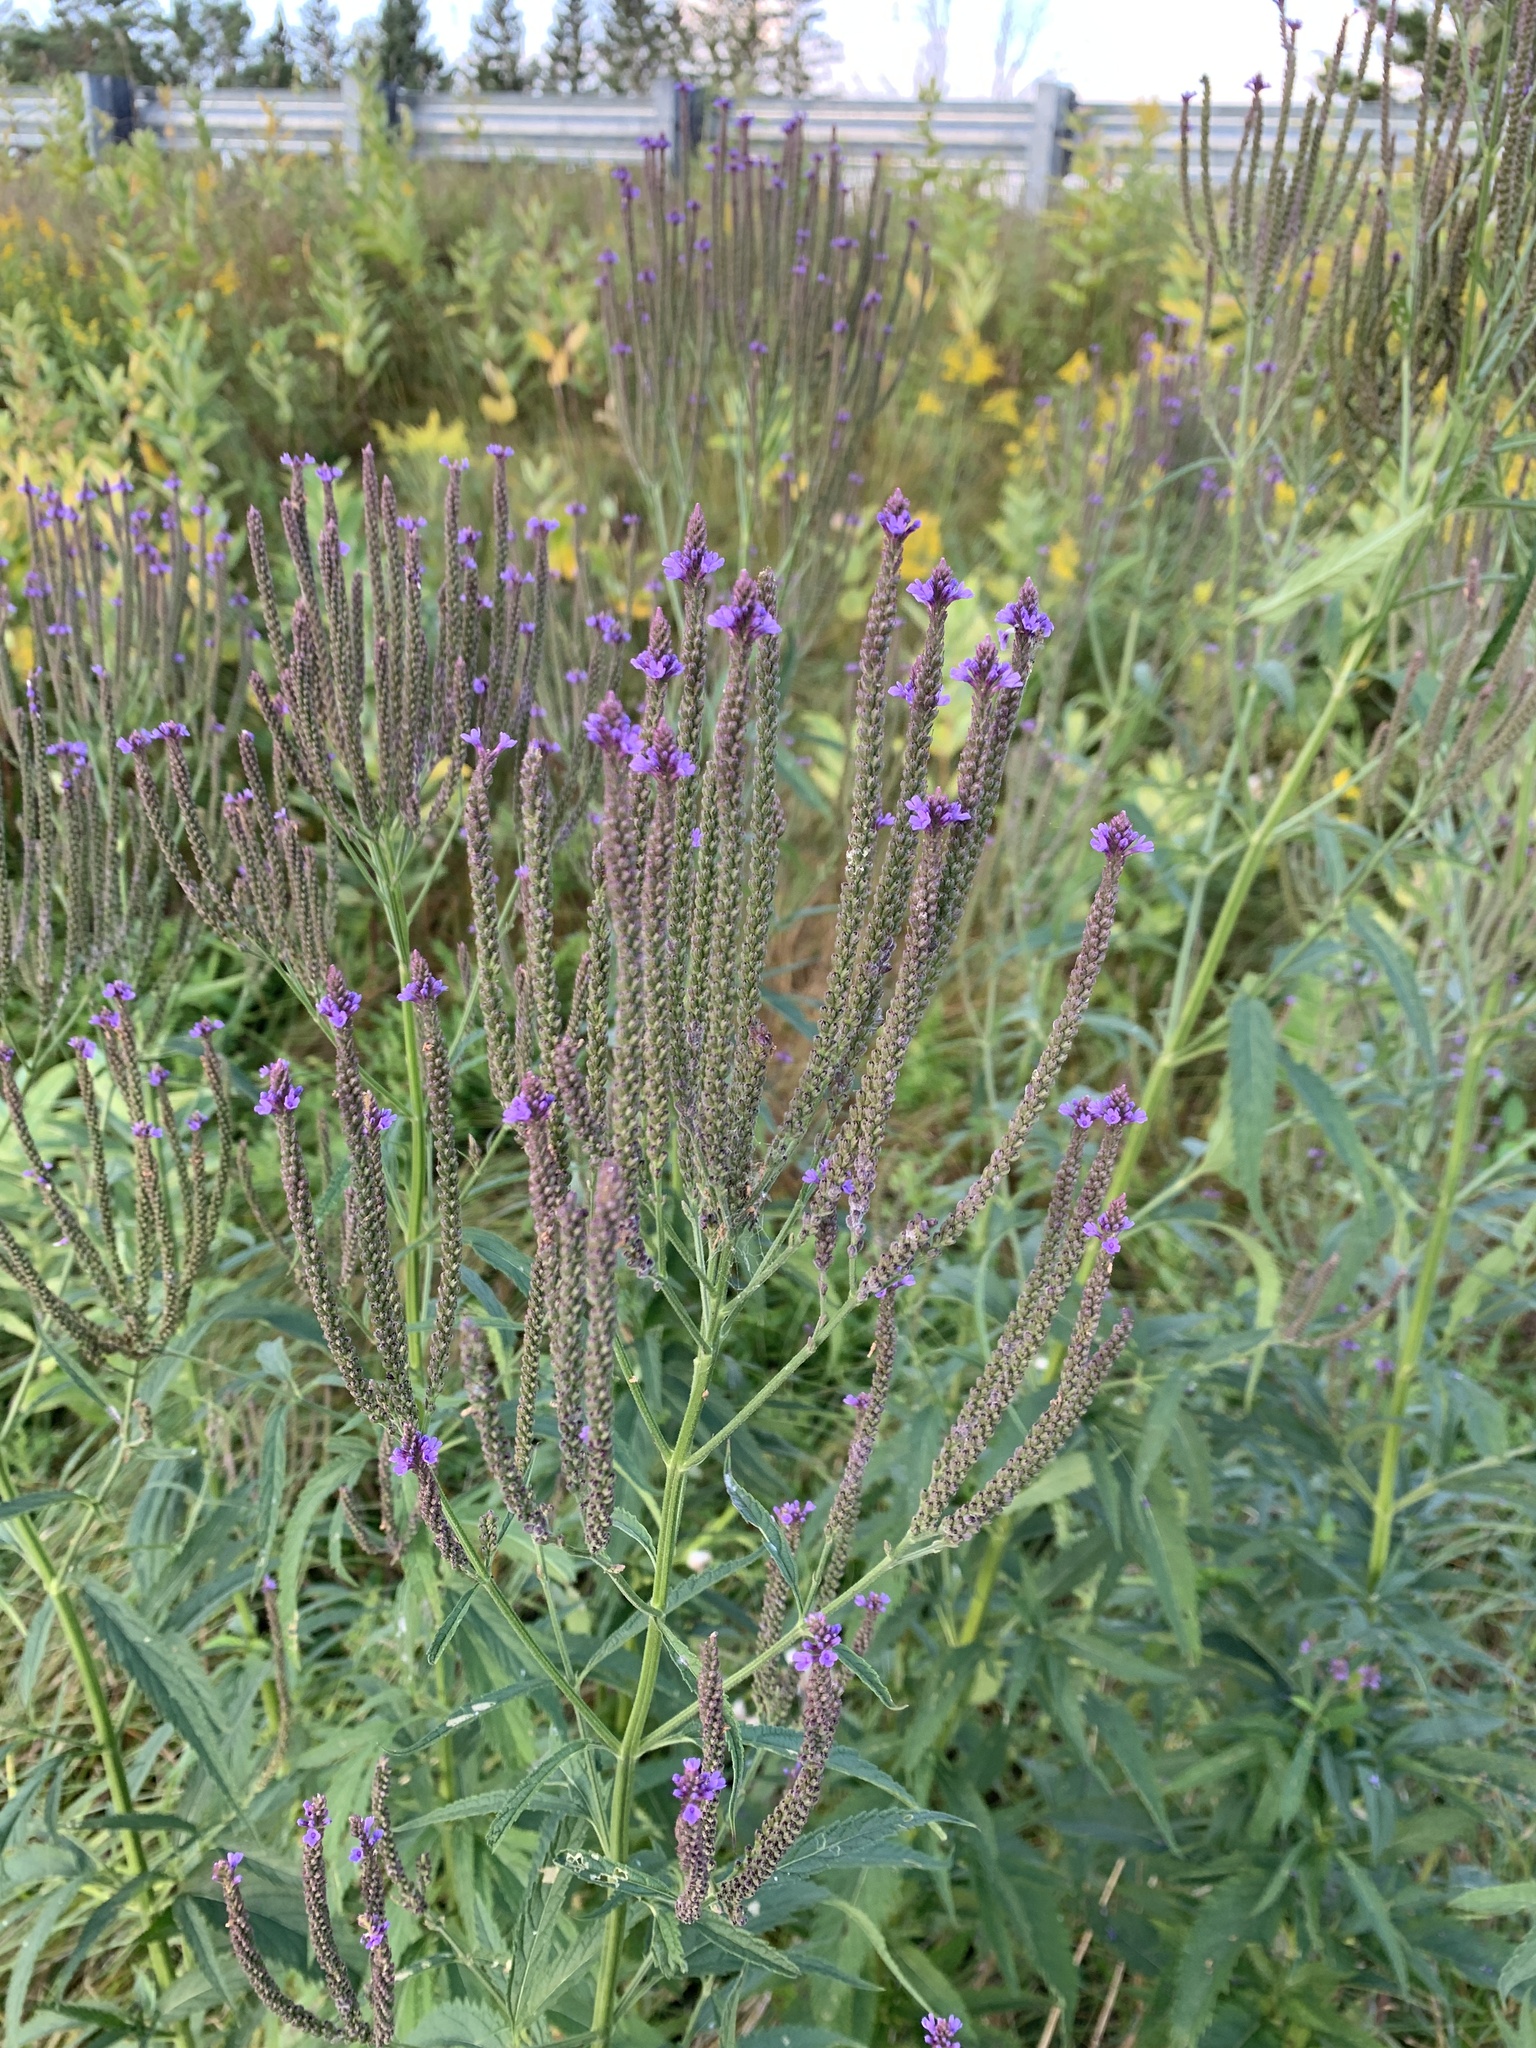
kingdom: Plantae
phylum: Tracheophyta
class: Magnoliopsida
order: Lamiales
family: Verbenaceae
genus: Verbena
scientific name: Verbena hastata
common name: American blue vervain
